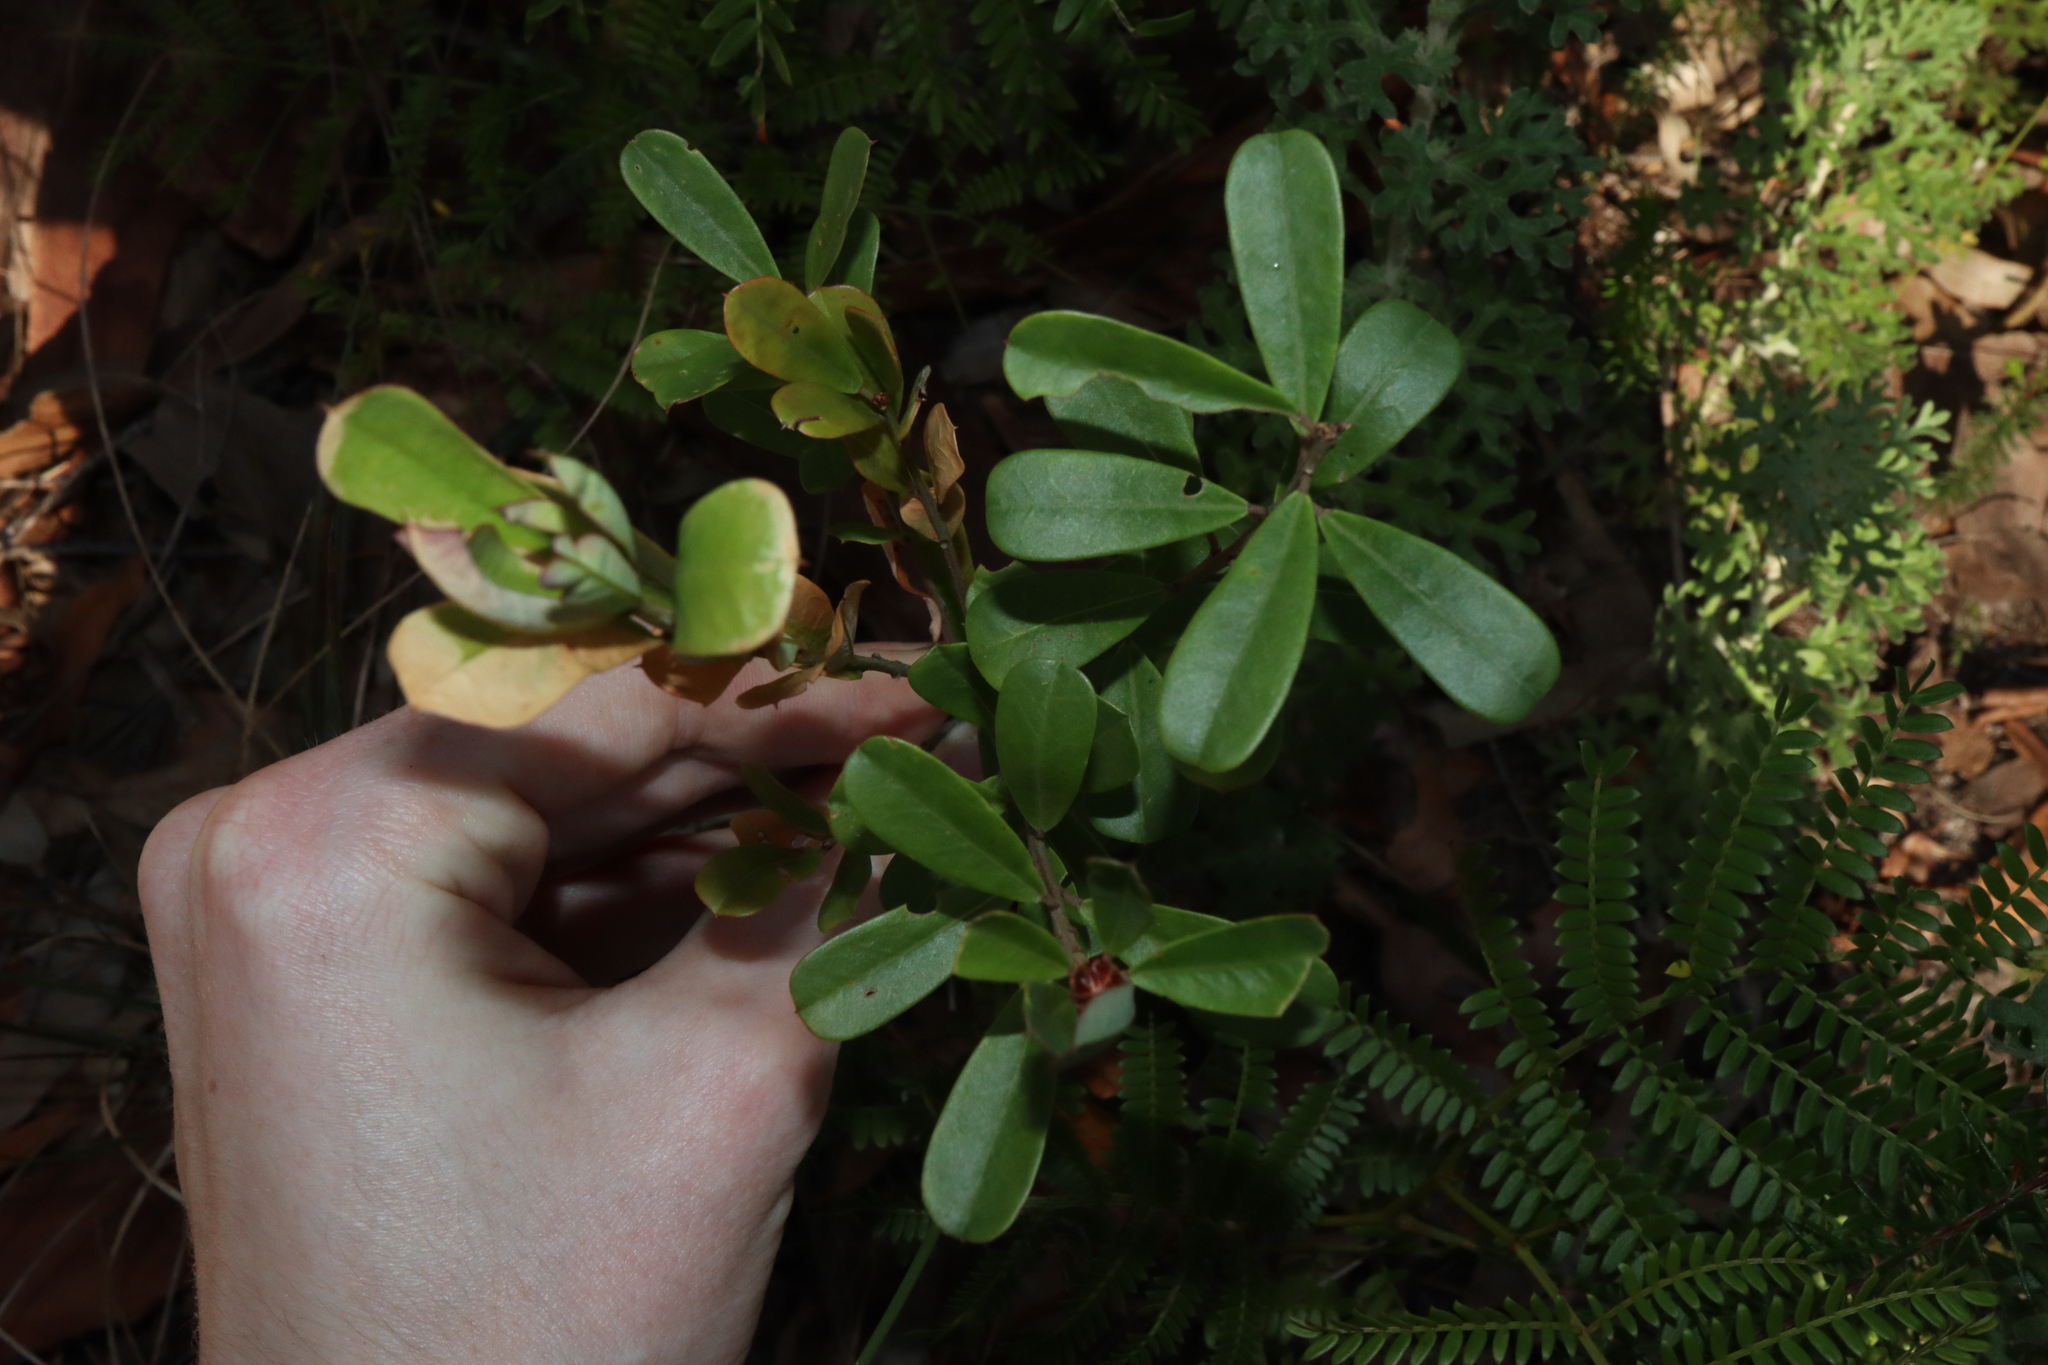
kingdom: Plantae
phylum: Tracheophyta
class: Magnoliopsida
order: Fabales
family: Fabaceae
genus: Pultenaea
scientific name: Pultenaea daphnoides
